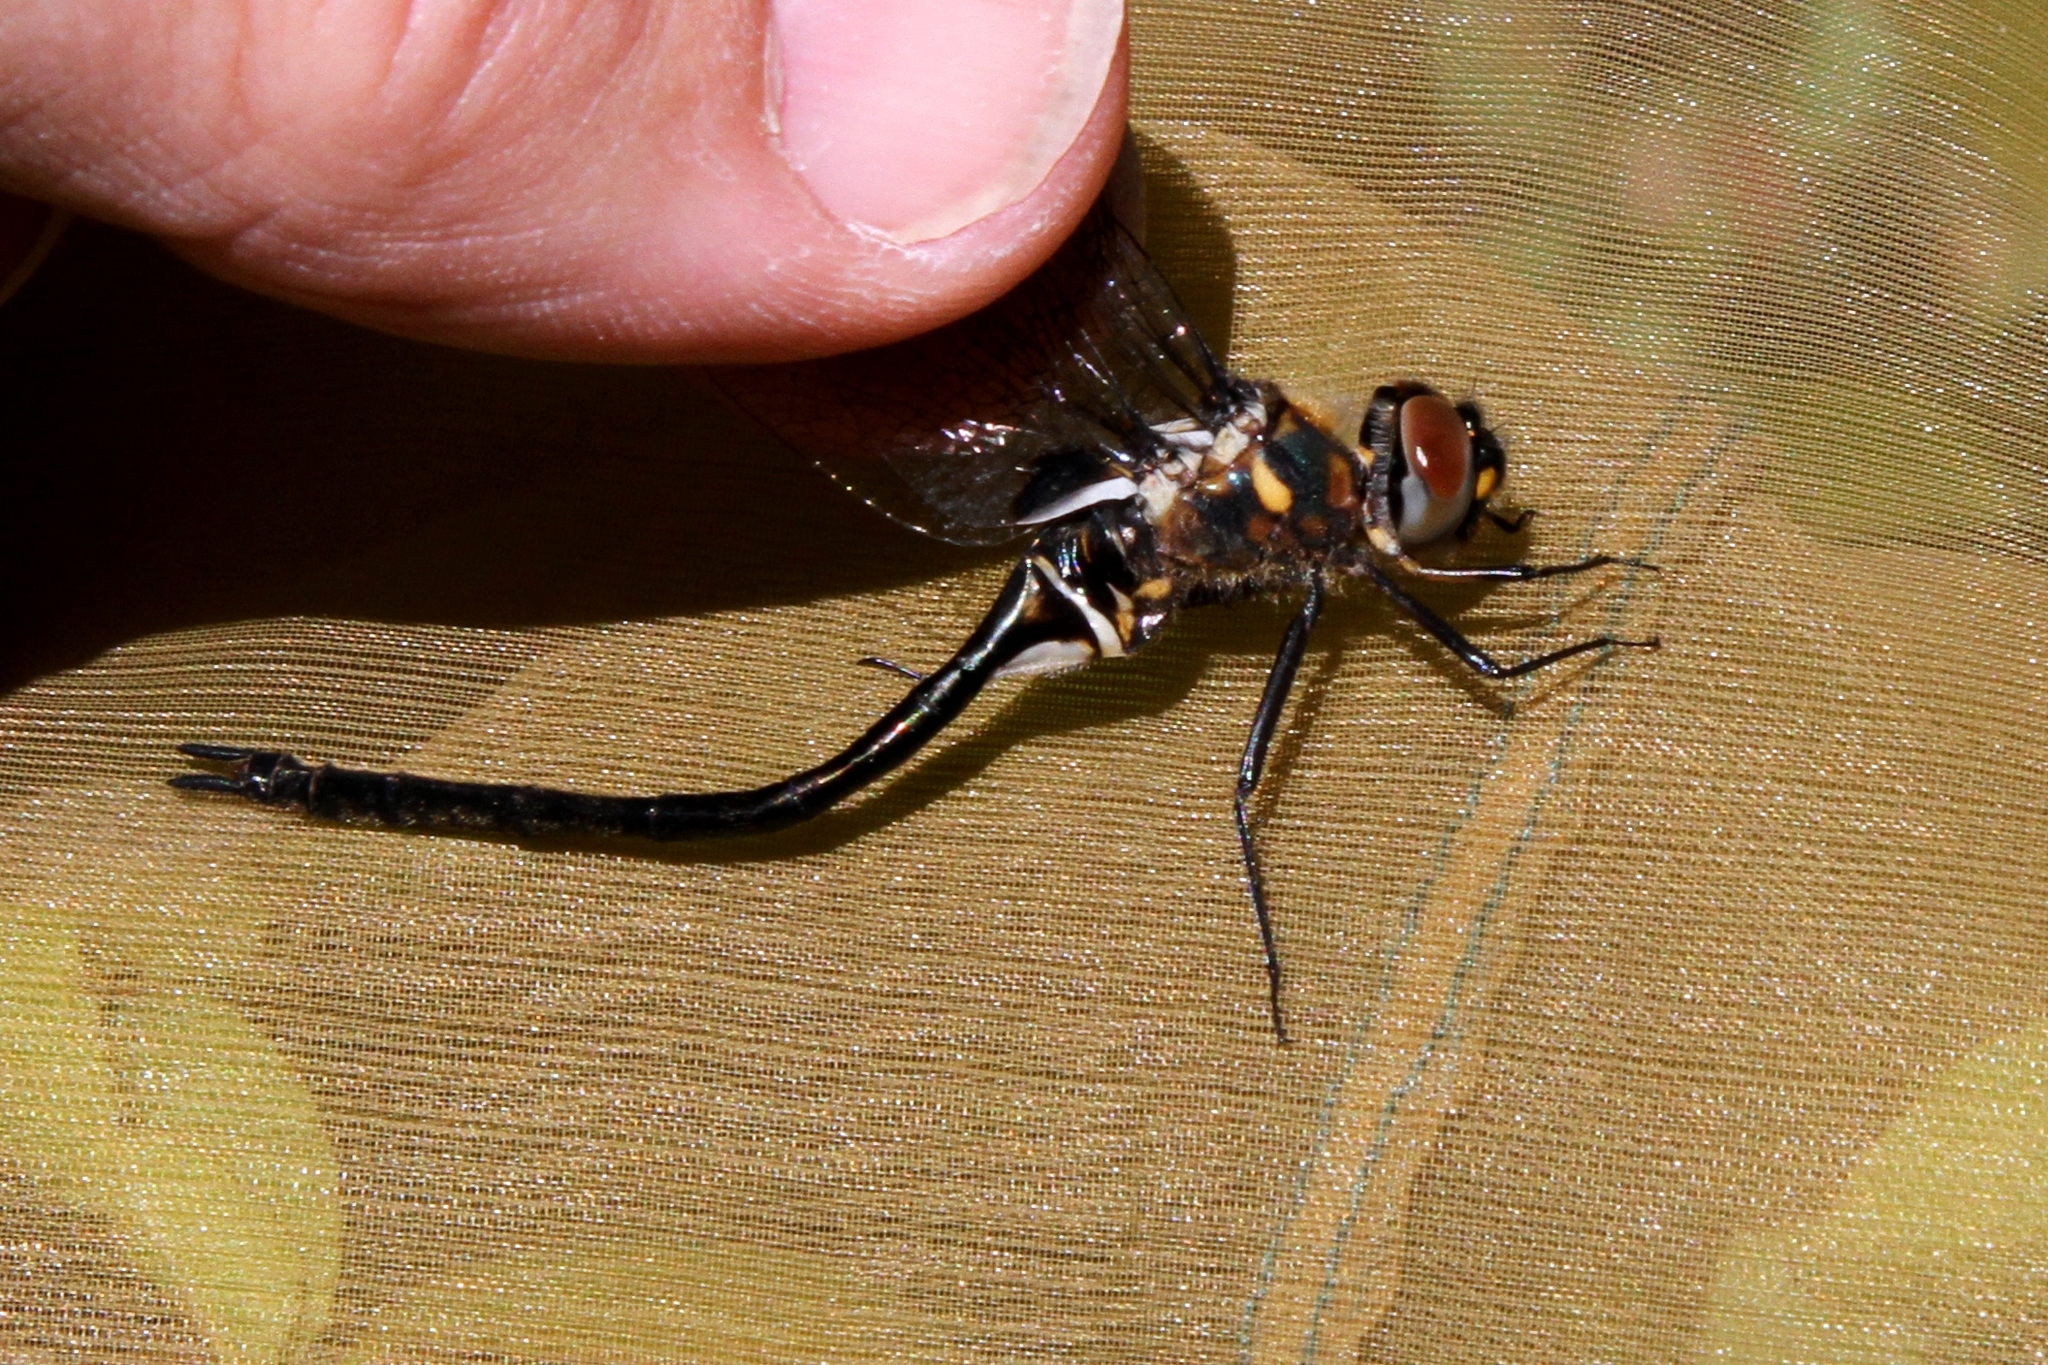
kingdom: Animalia
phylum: Arthropoda
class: Insecta
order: Odonata
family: Corduliidae
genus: Somatochlora
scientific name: Somatochlora franklini
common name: Delicate emerald
